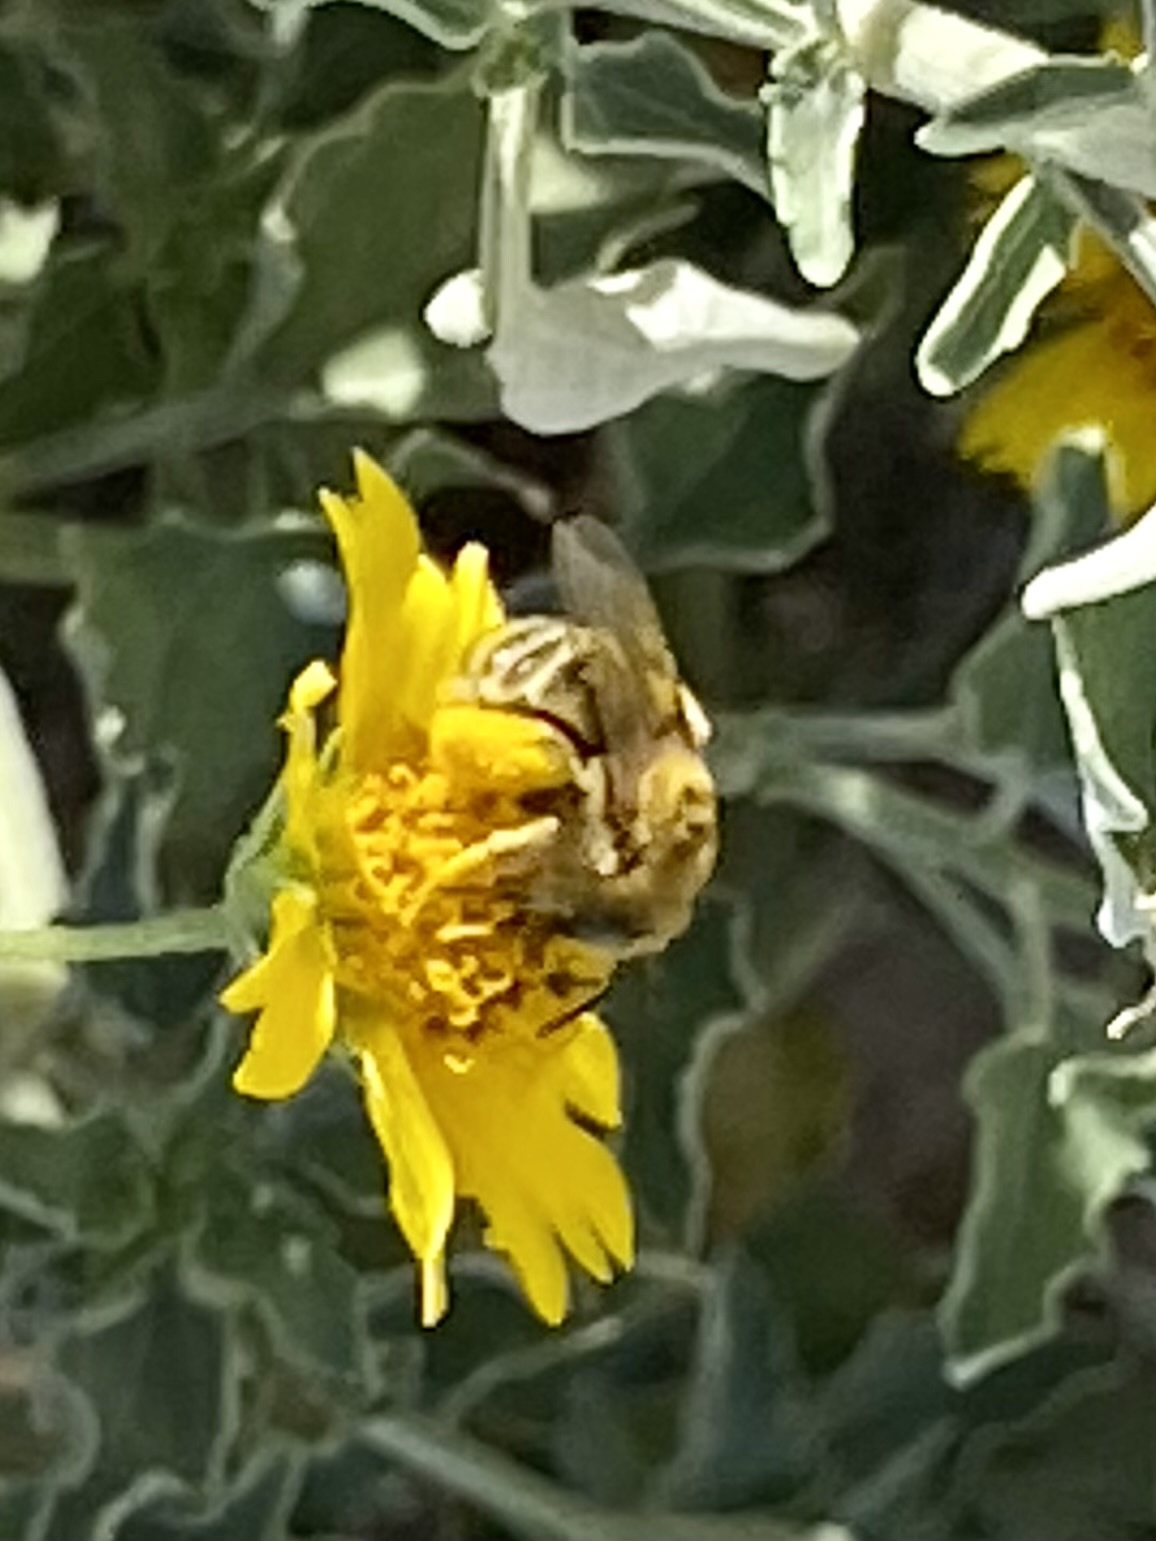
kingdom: Animalia
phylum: Arthropoda
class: Insecta
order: Hymenoptera
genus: Eumelissodes
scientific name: Eumelissodes
